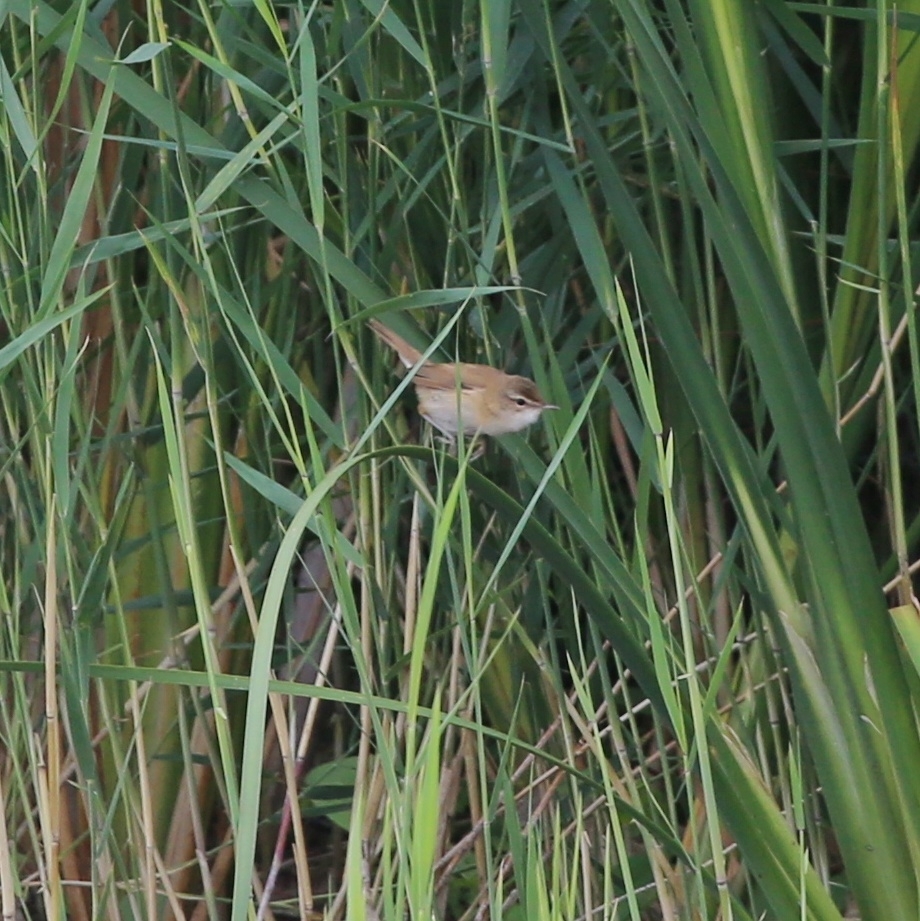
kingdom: Animalia
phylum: Chordata
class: Aves
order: Passeriformes
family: Acrocephalidae
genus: Acrocephalus
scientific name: Acrocephalus agricola
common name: Paddyfield warbler
